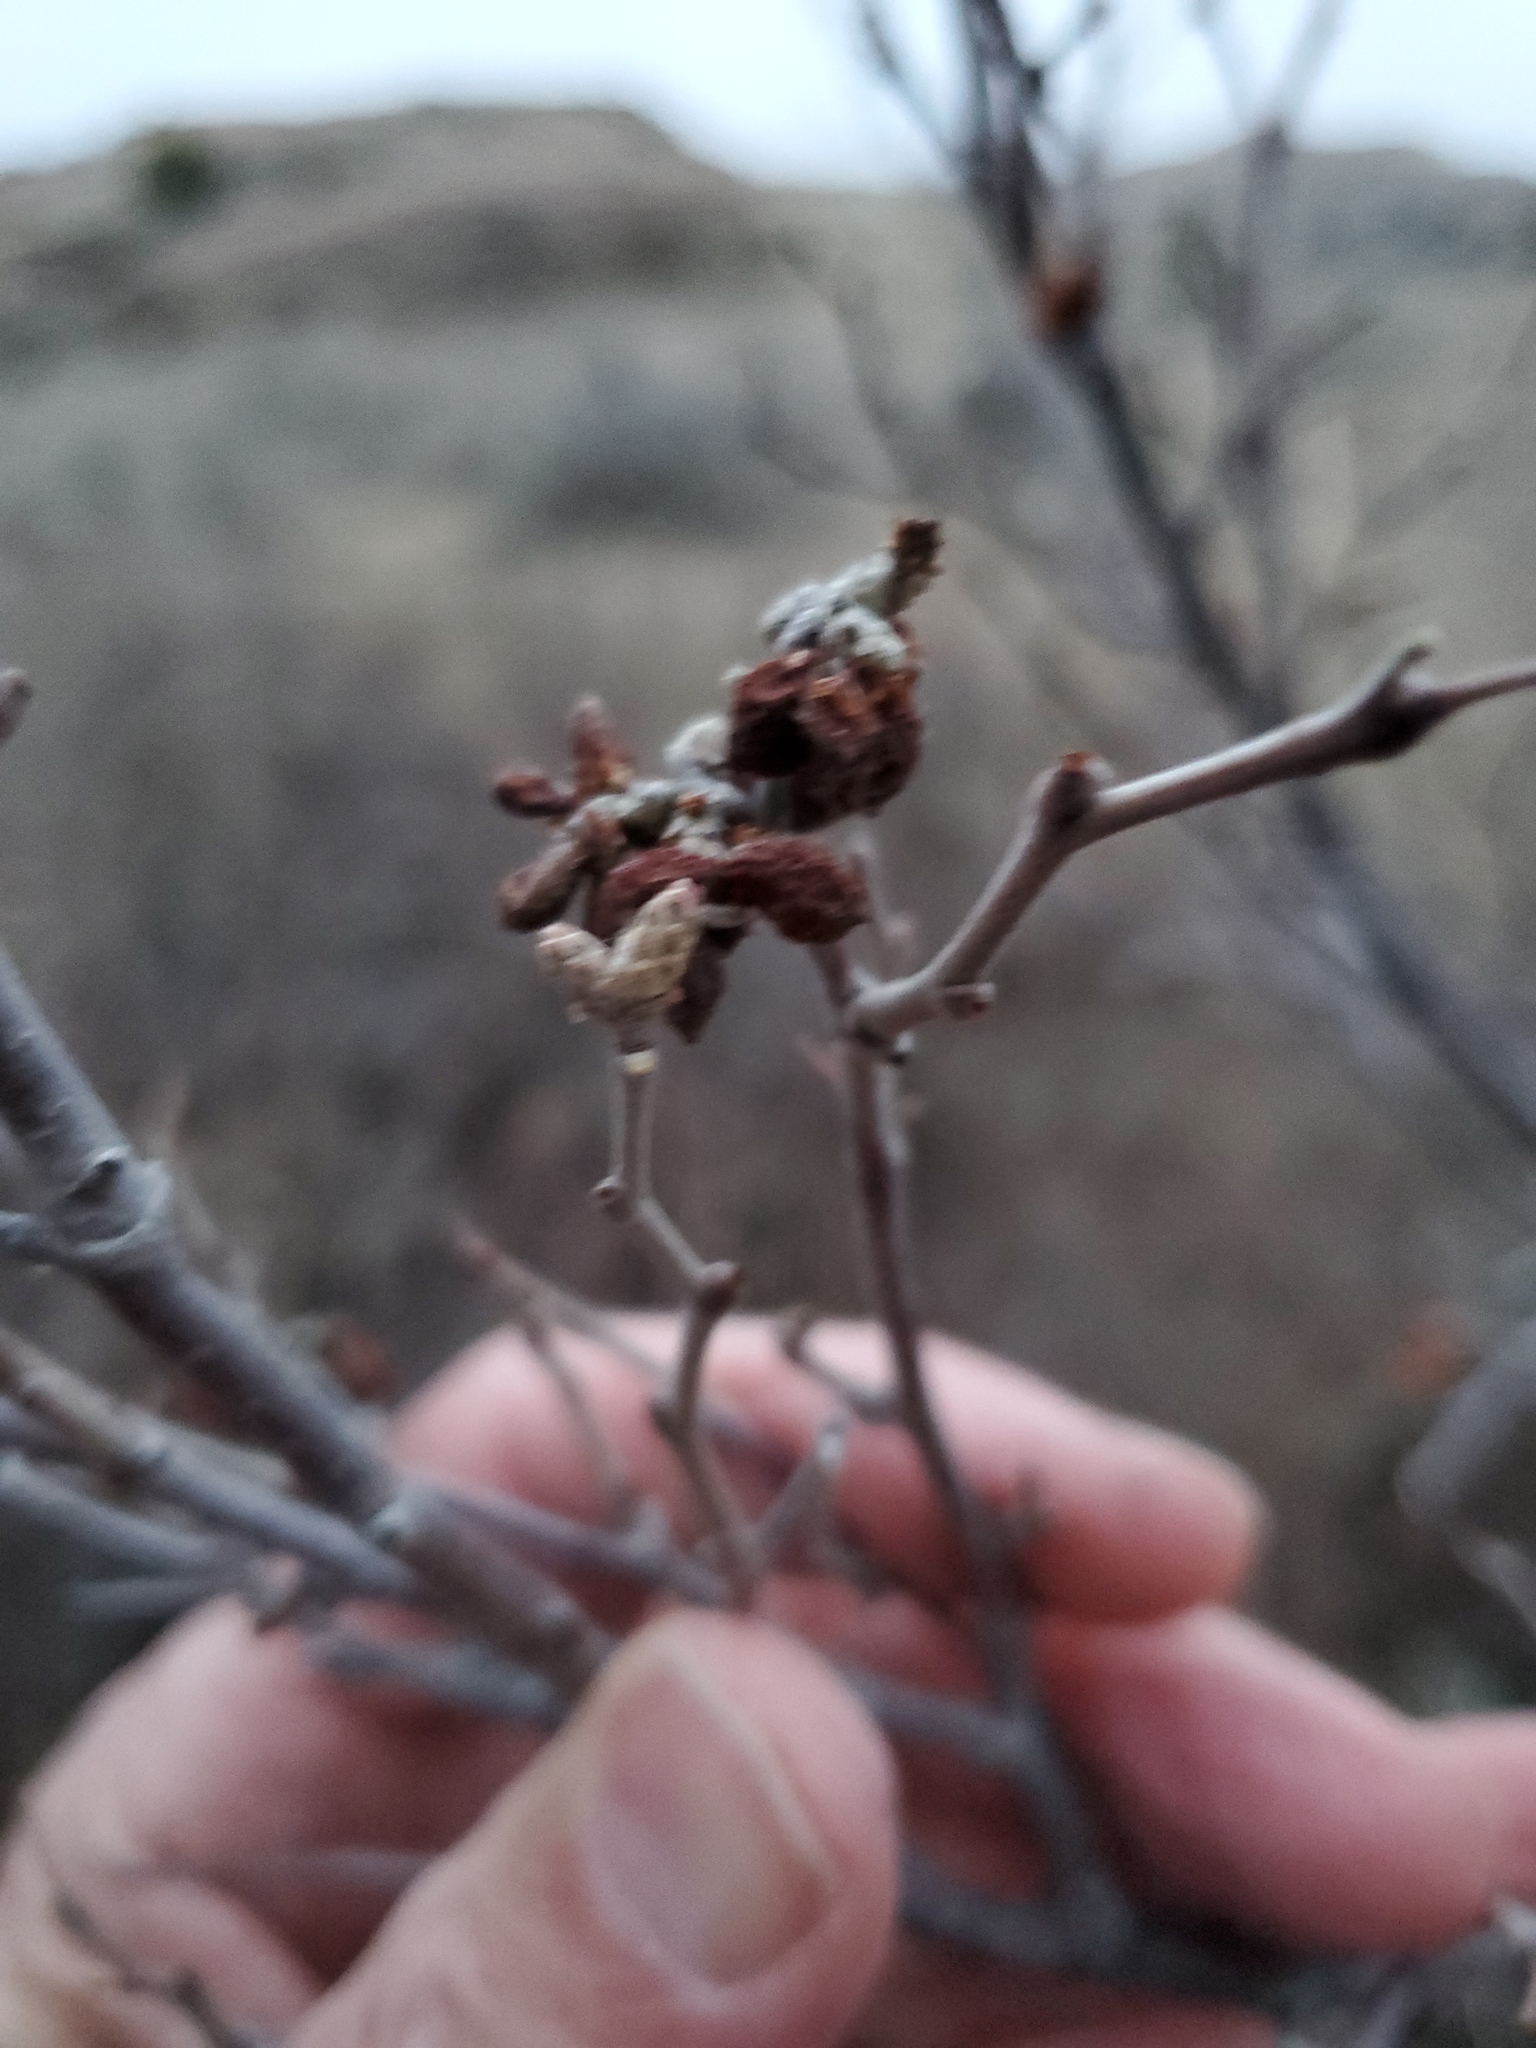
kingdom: Plantae
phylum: Tracheophyta
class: Magnoliopsida
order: Sapindales
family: Anacardiaceae
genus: Rhus
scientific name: Rhus aromatica
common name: Aromatic sumac
